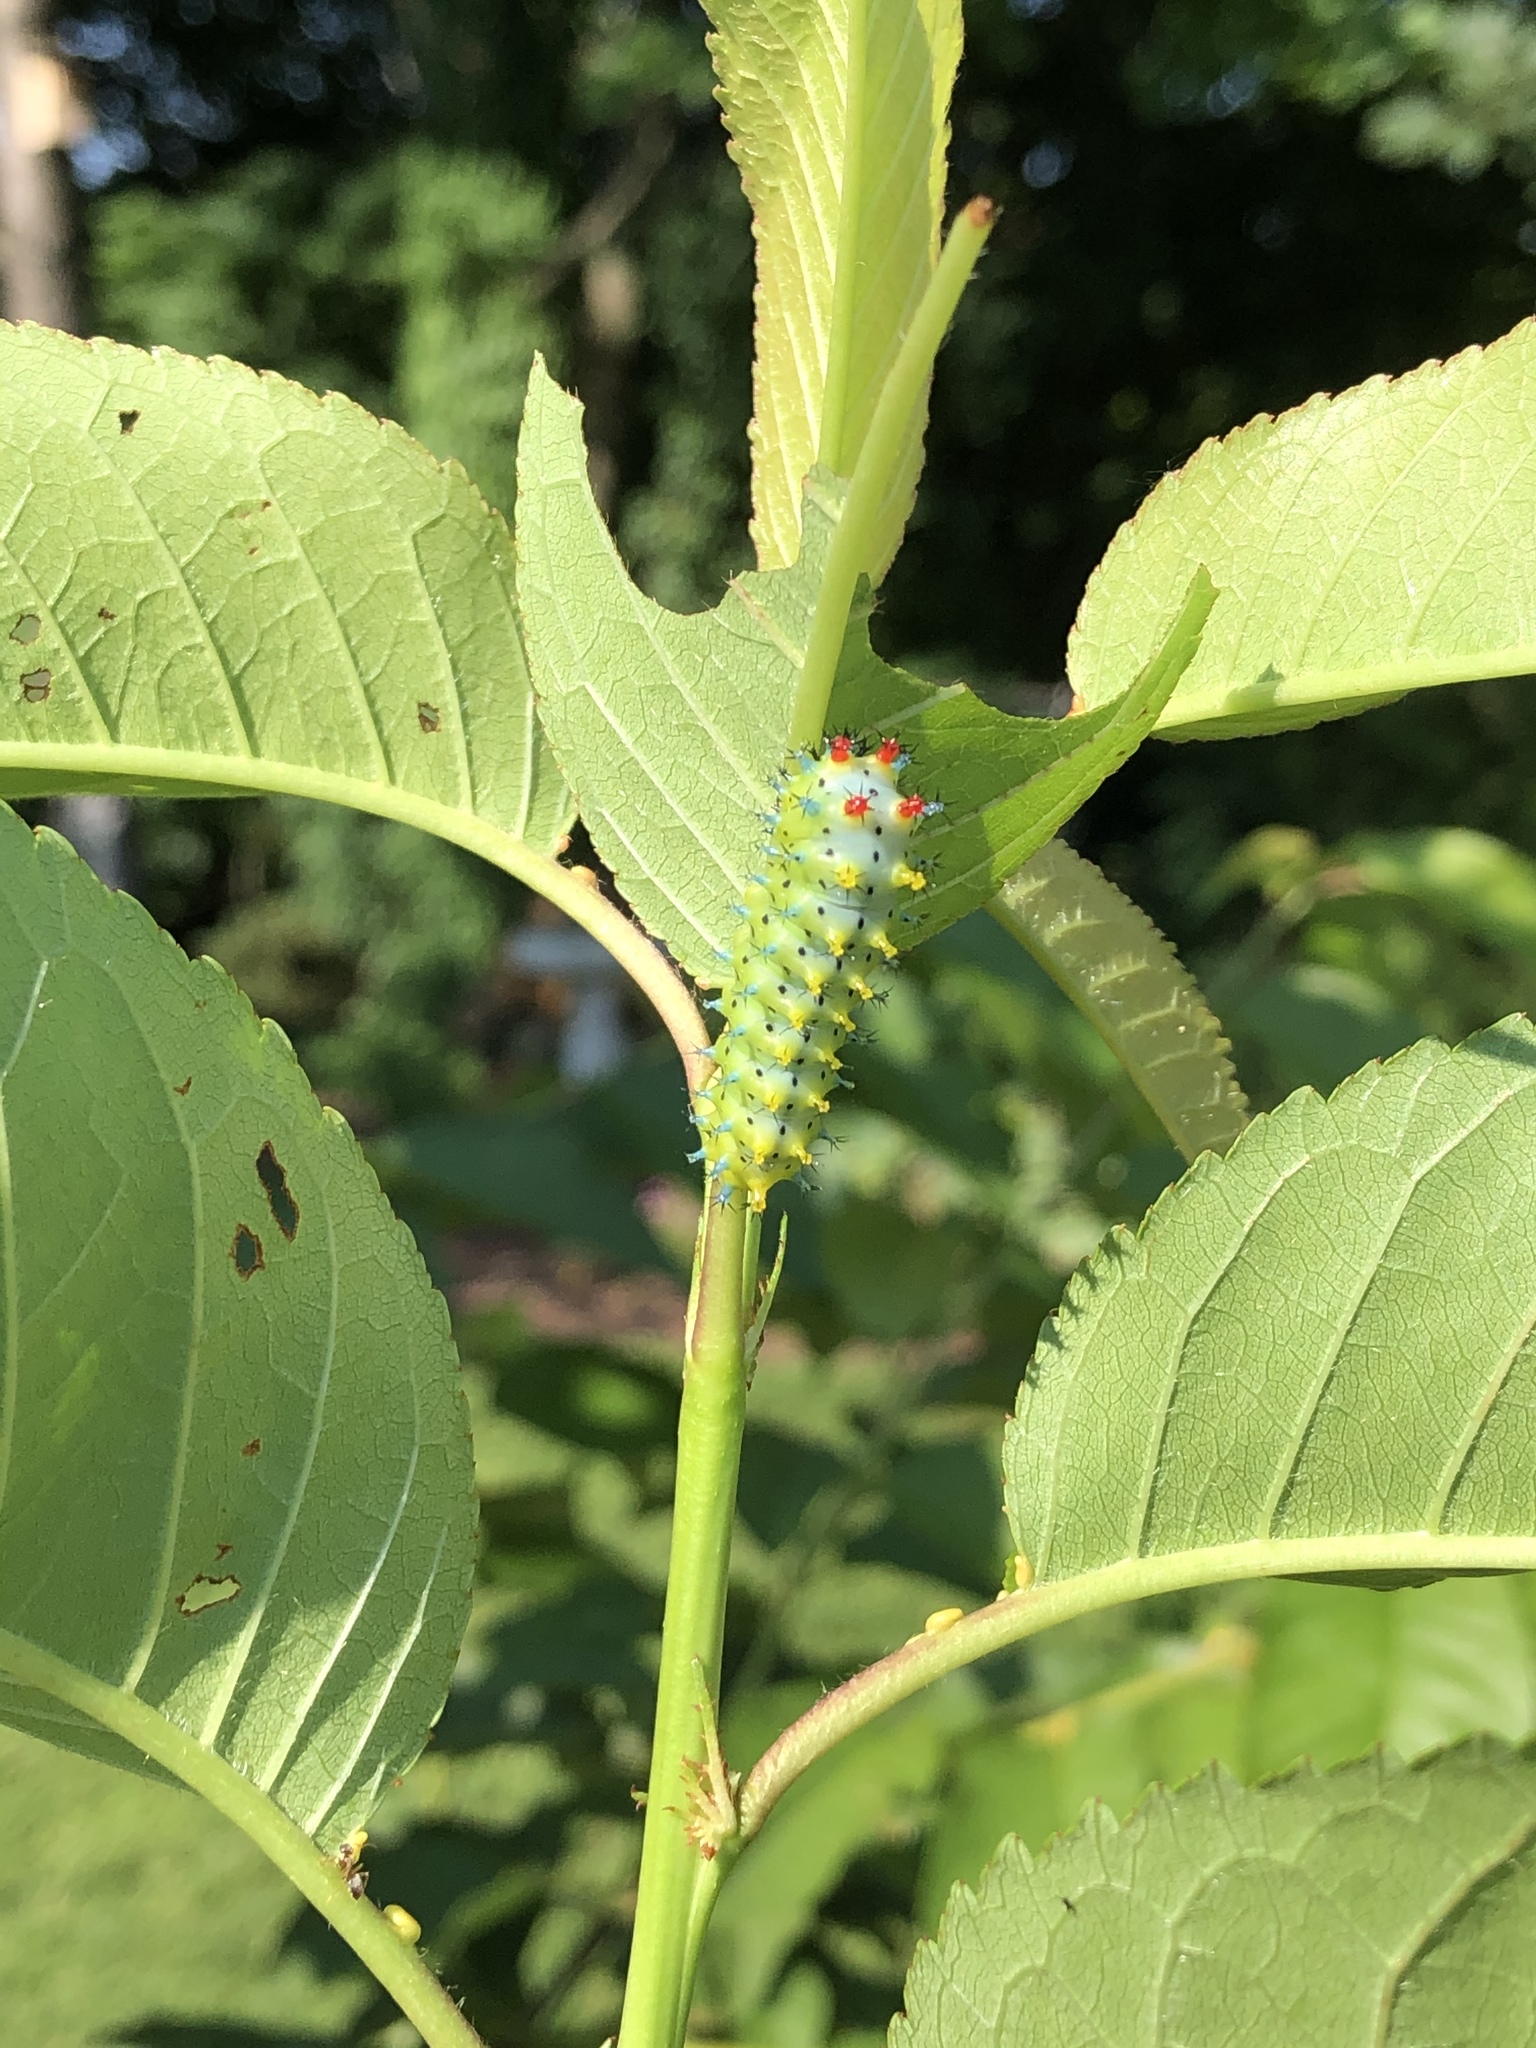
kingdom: Animalia
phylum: Arthropoda
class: Insecta
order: Lepidoptera
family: Saturniidae
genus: Hyalophora
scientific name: Hyalophora cecropia
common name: Cecropia silkmoth
